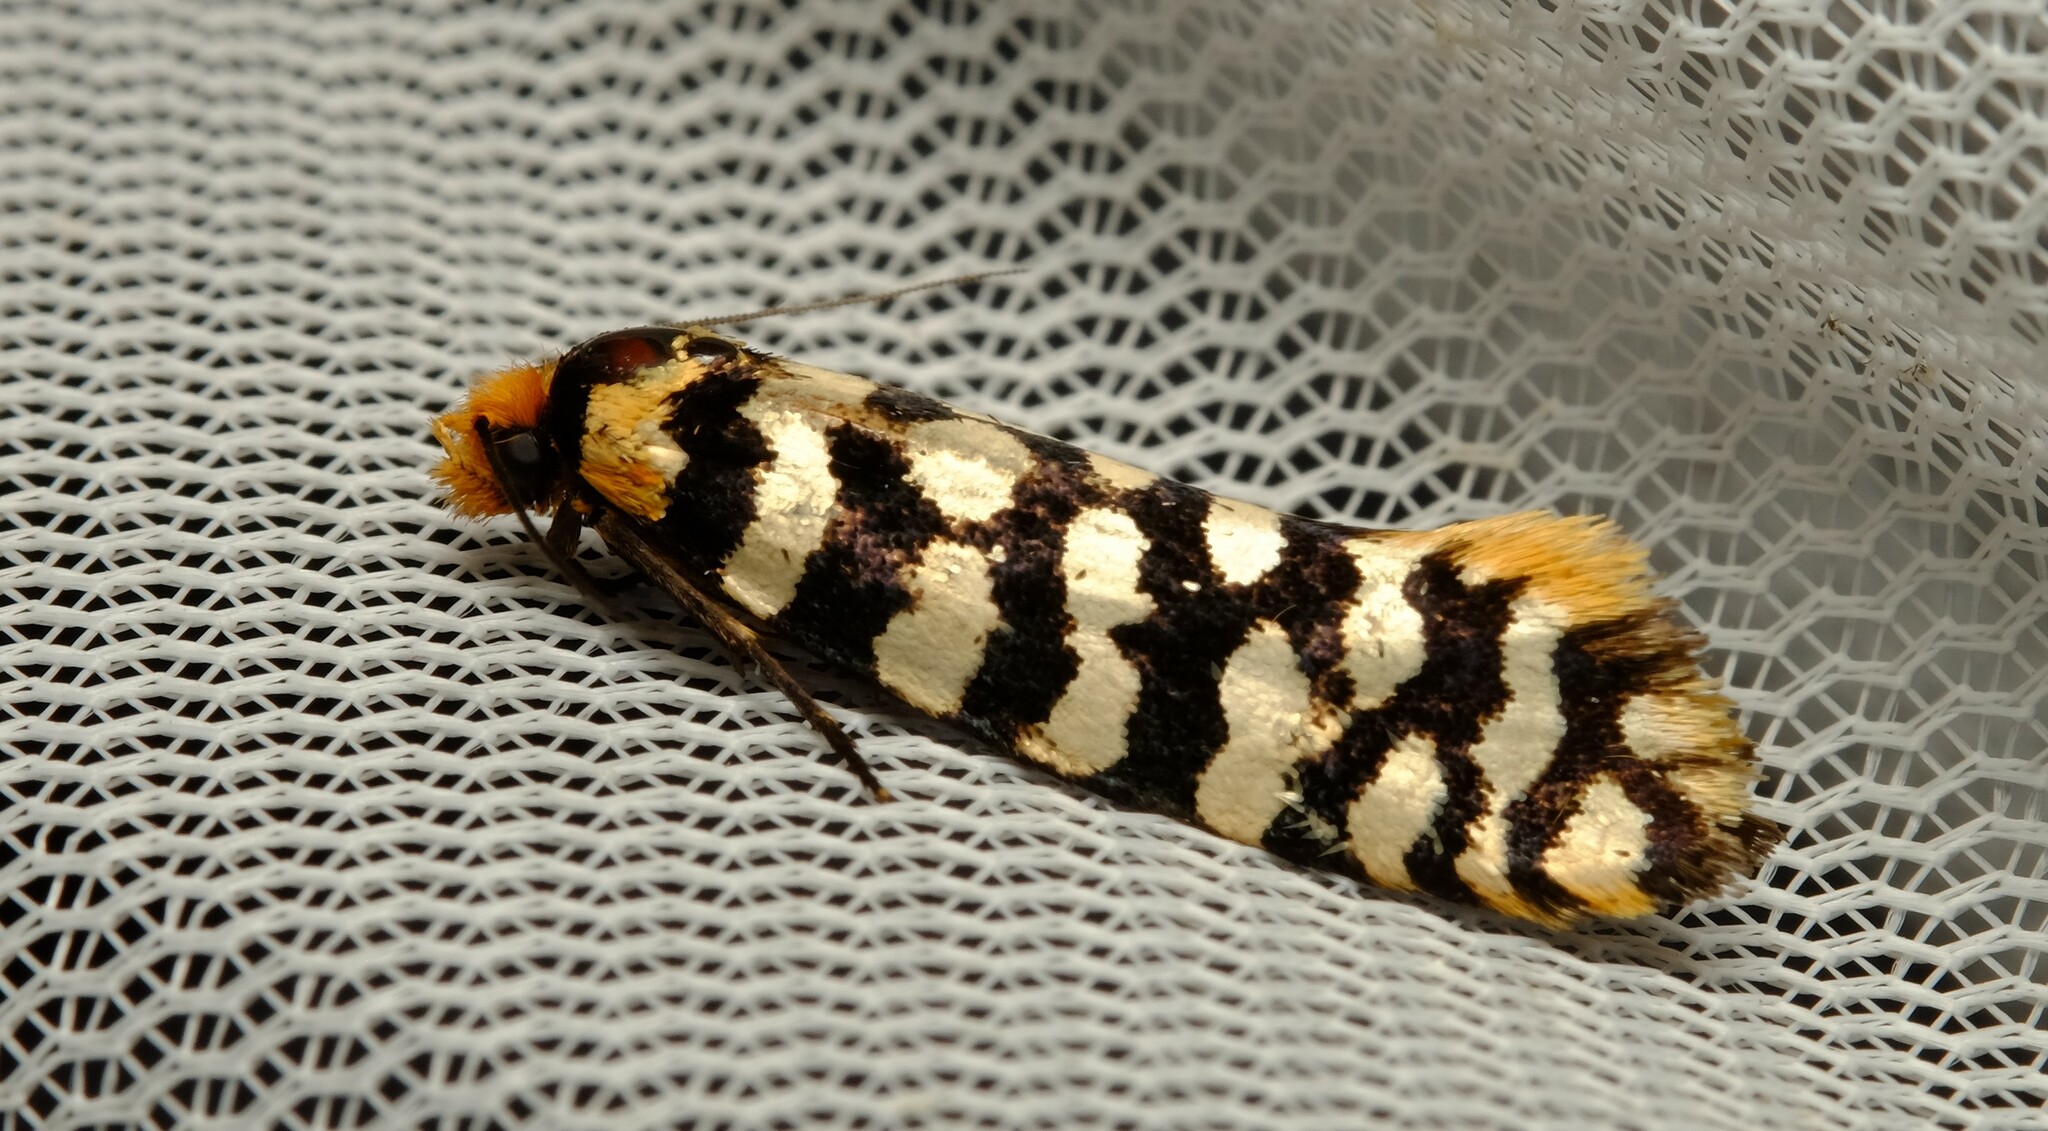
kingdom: Animalia
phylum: Arthropoda
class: Insecta
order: Lepidoptera
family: Tineidae
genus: Moerarchis
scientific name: Moerarchis australasiella
